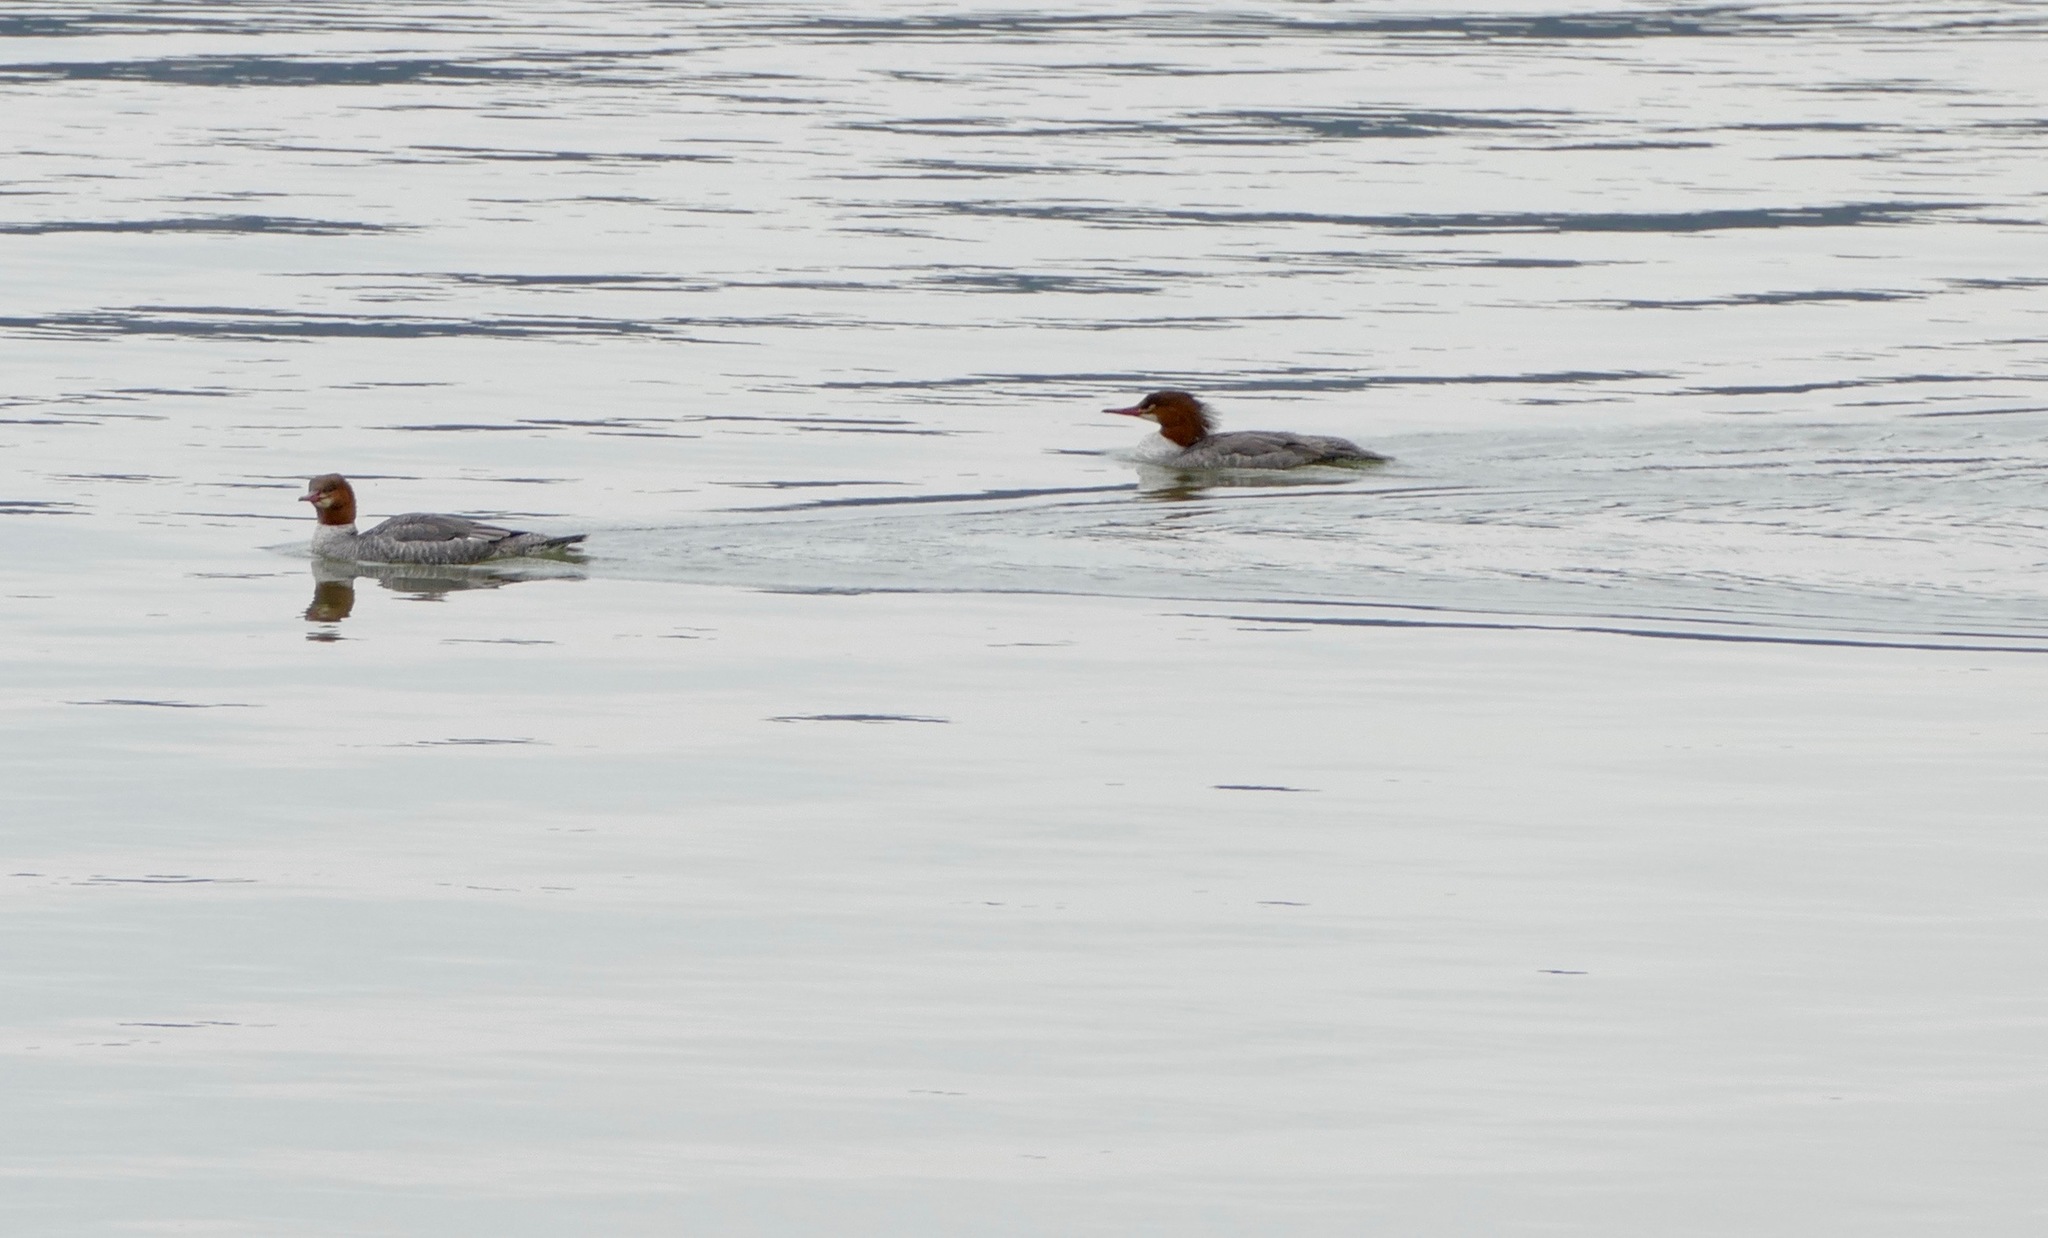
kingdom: Animalia
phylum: Chordata
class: Aves
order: Anseriformes
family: Anatidae
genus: Mergus
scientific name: Mergus merganser
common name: Common merganser
